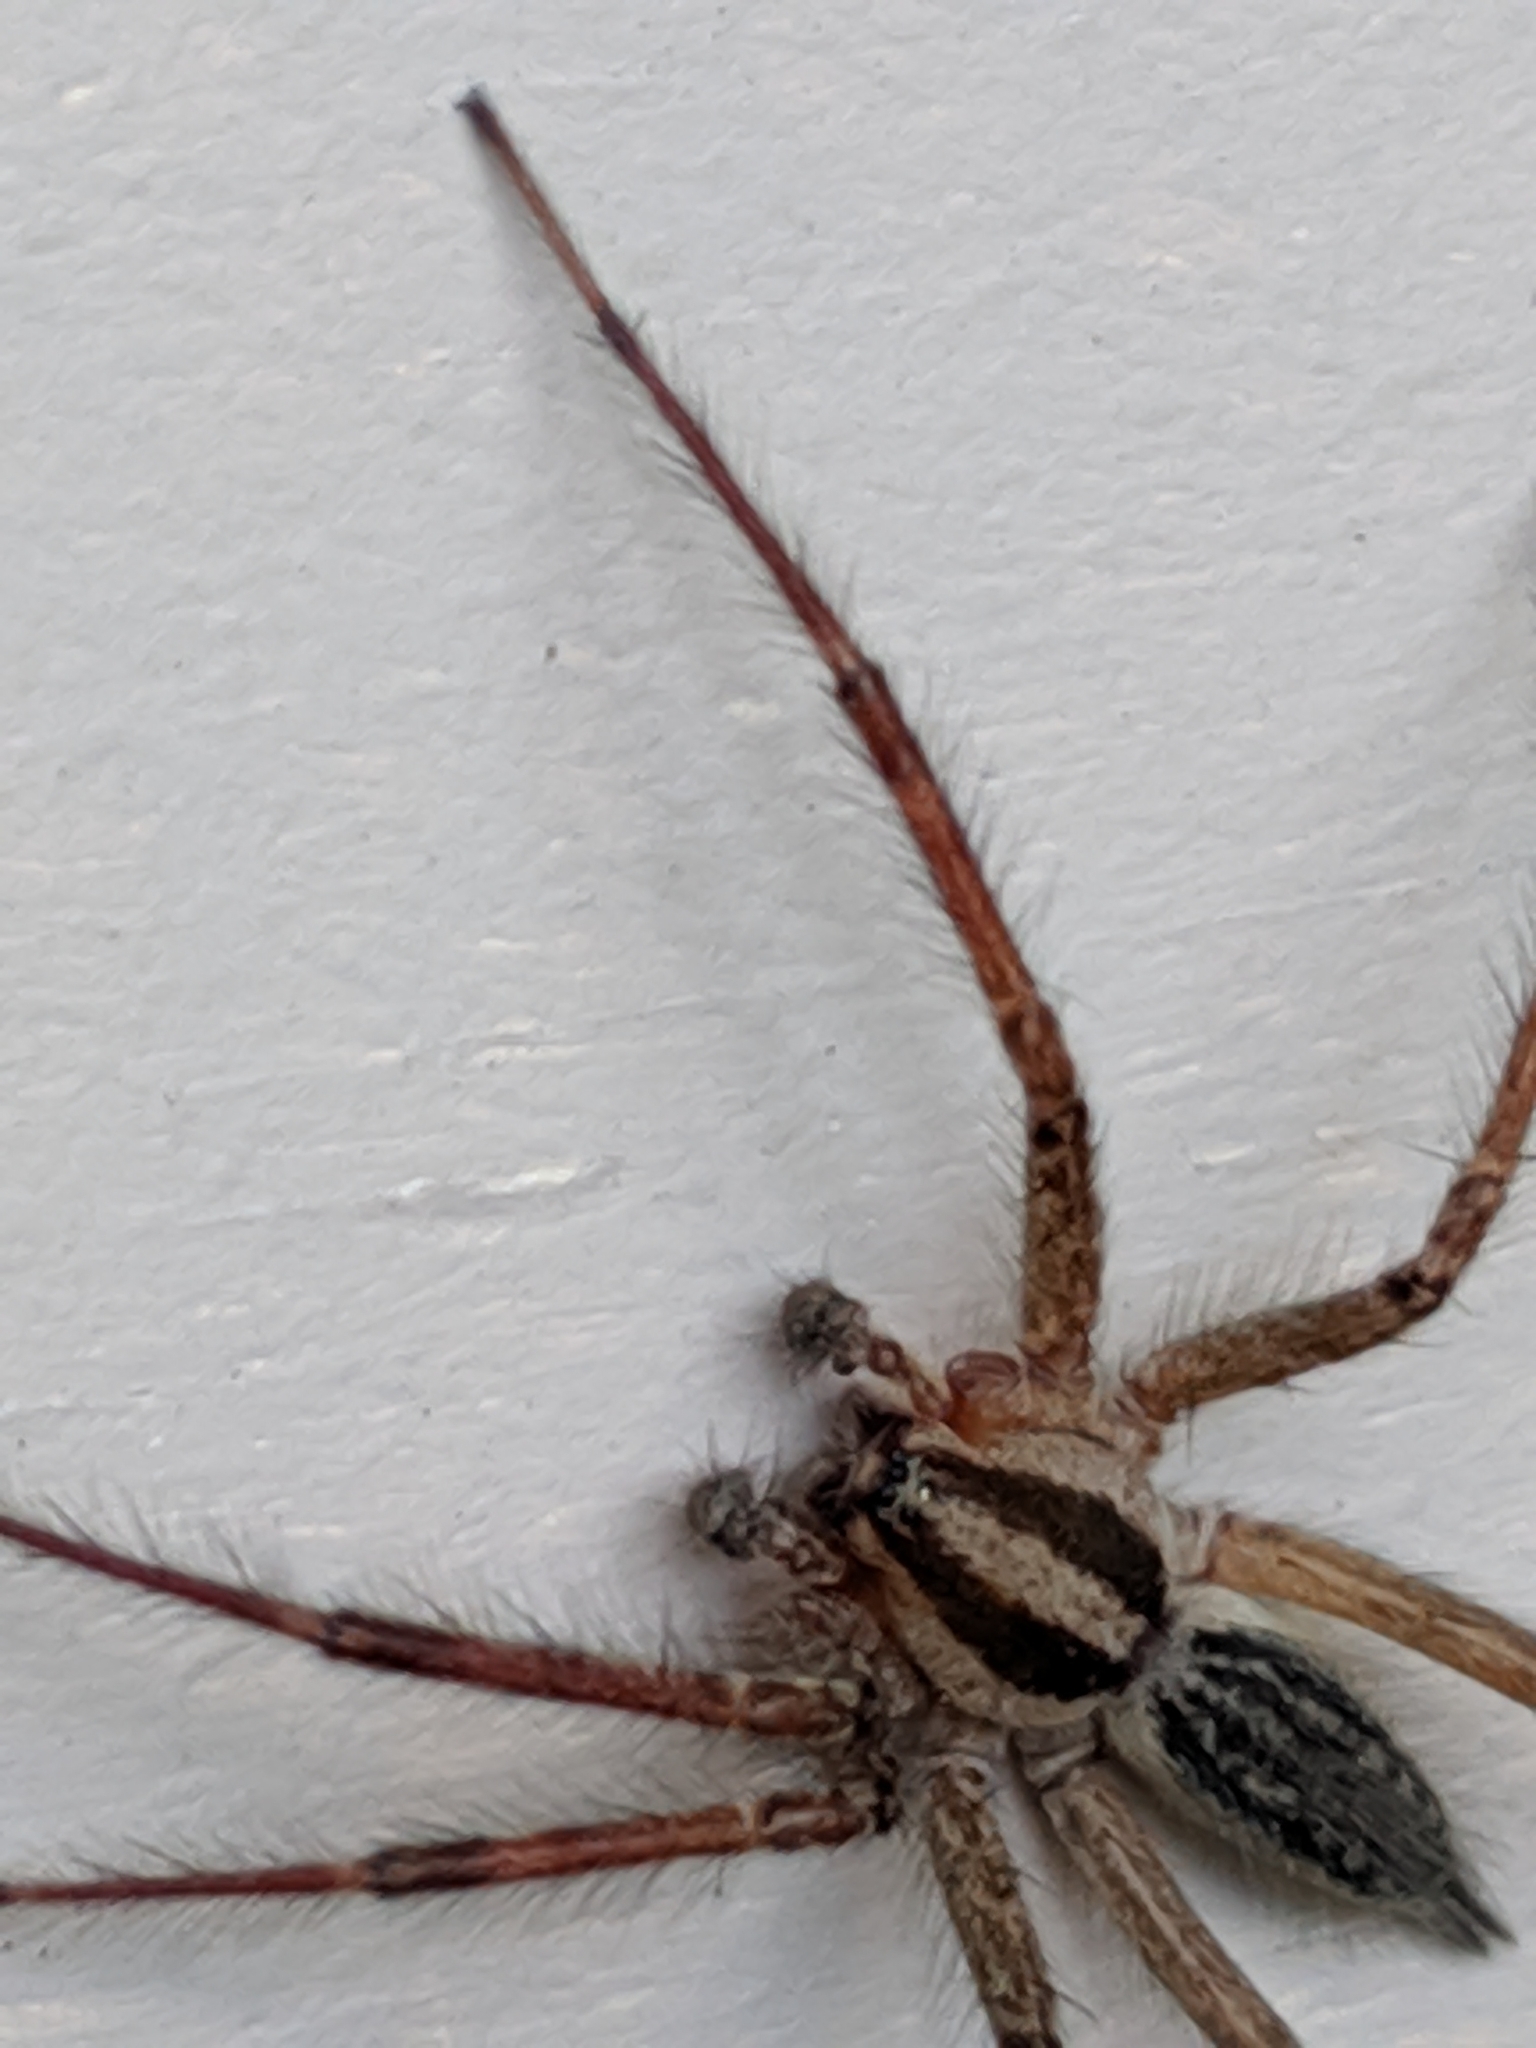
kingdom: Animalia
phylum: Arthropoda
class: Arachnida
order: Araneae
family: Agelenidae
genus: Agelenopsis
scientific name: Agelenopsis
